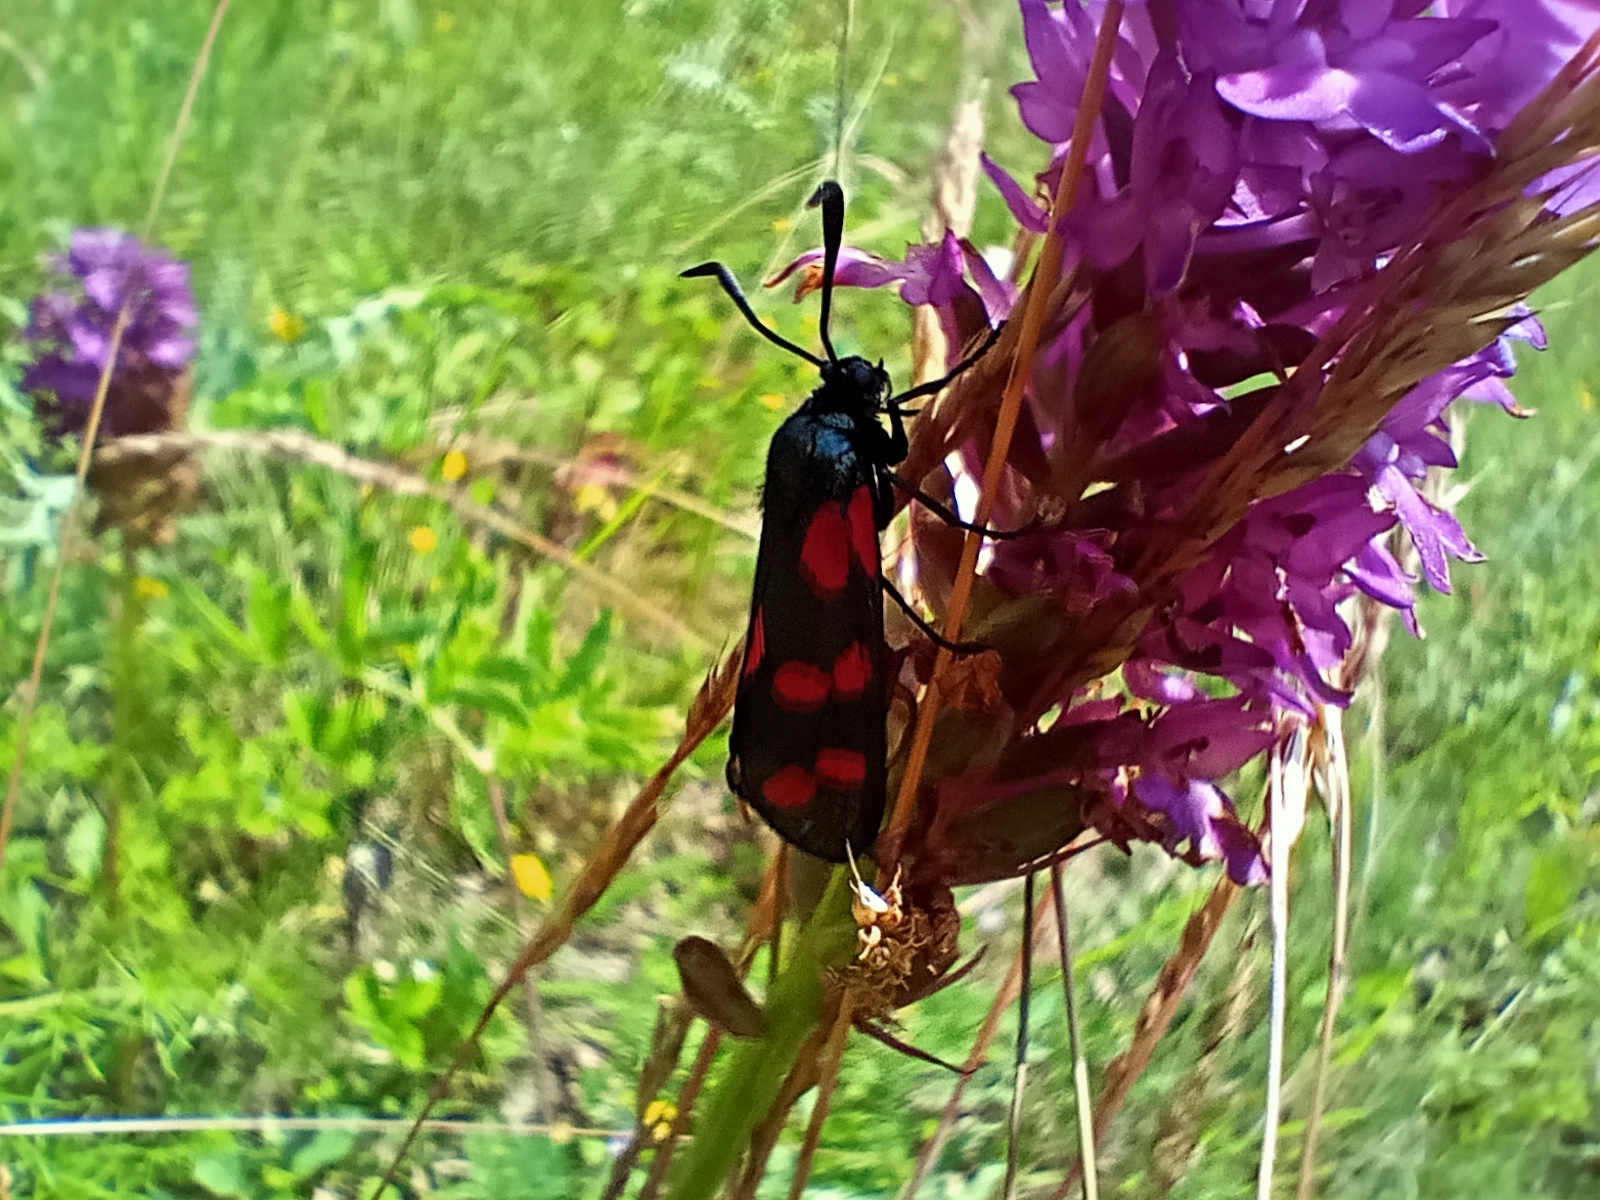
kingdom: Animalia
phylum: Arthropoda
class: Insecta
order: Lepidoptera
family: Zygaenidae
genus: Zygaena
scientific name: Zygaena filipendulae
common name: Six-spot burnet
